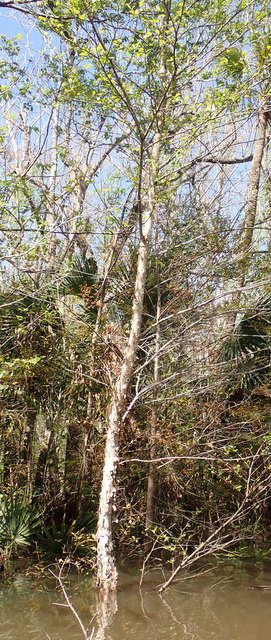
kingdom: Plantae
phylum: Tracheophyta
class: Magnoliopsida
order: Fagales
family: Betulaceae
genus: Betula
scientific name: Betula nigra
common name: Black birch
